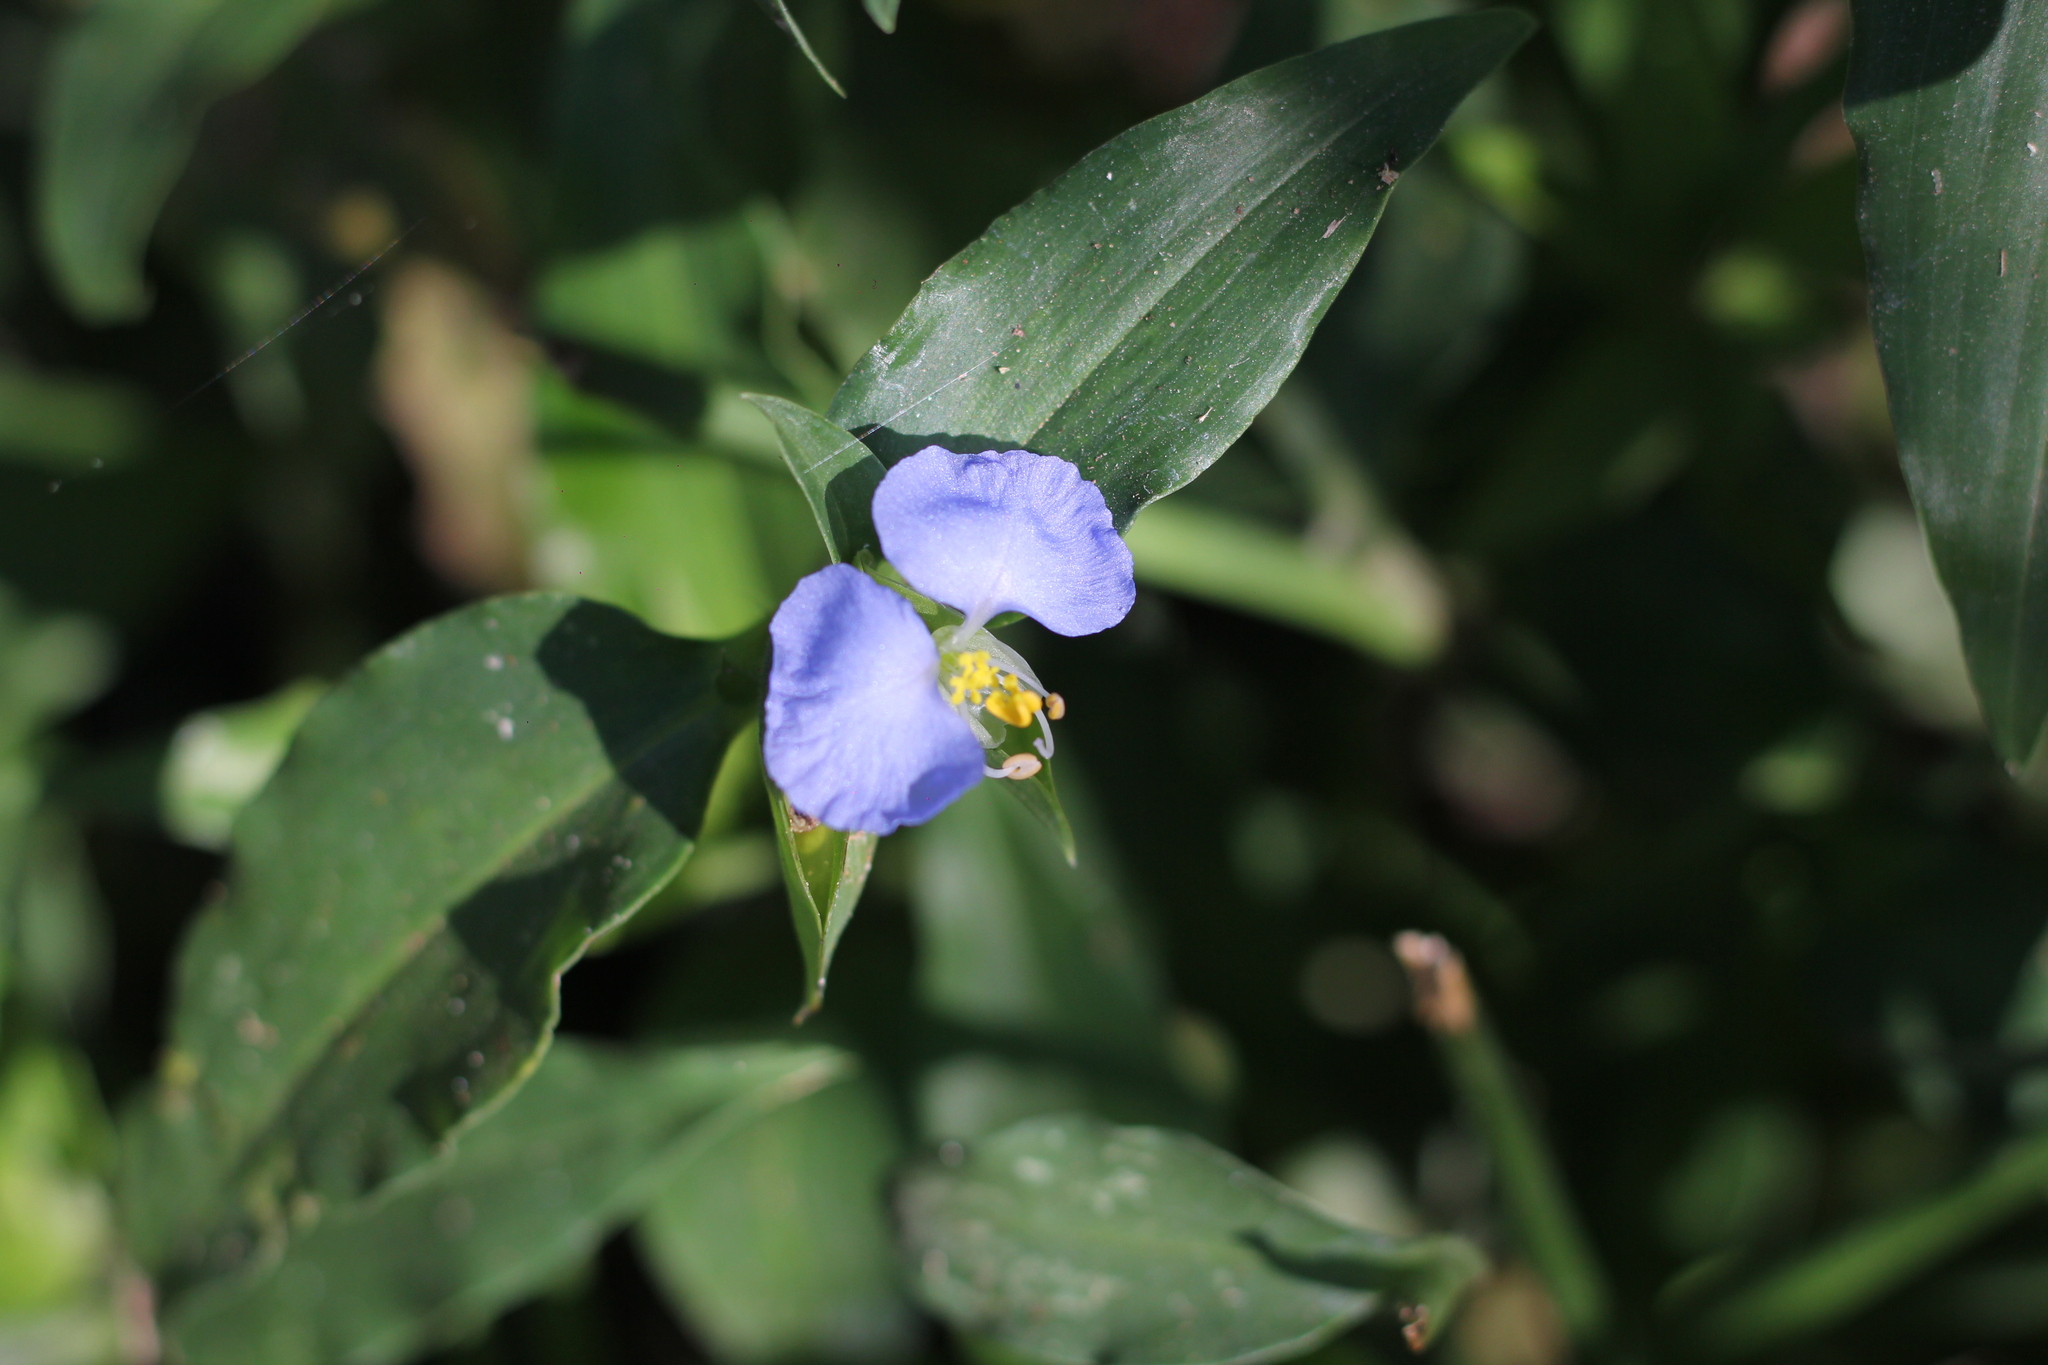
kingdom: Plantae
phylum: Tracheophyta
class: Liliopsida
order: Commelinales
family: Commelinaceae
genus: Commelina
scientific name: Commelina erecta
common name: Blousel blommetjie
